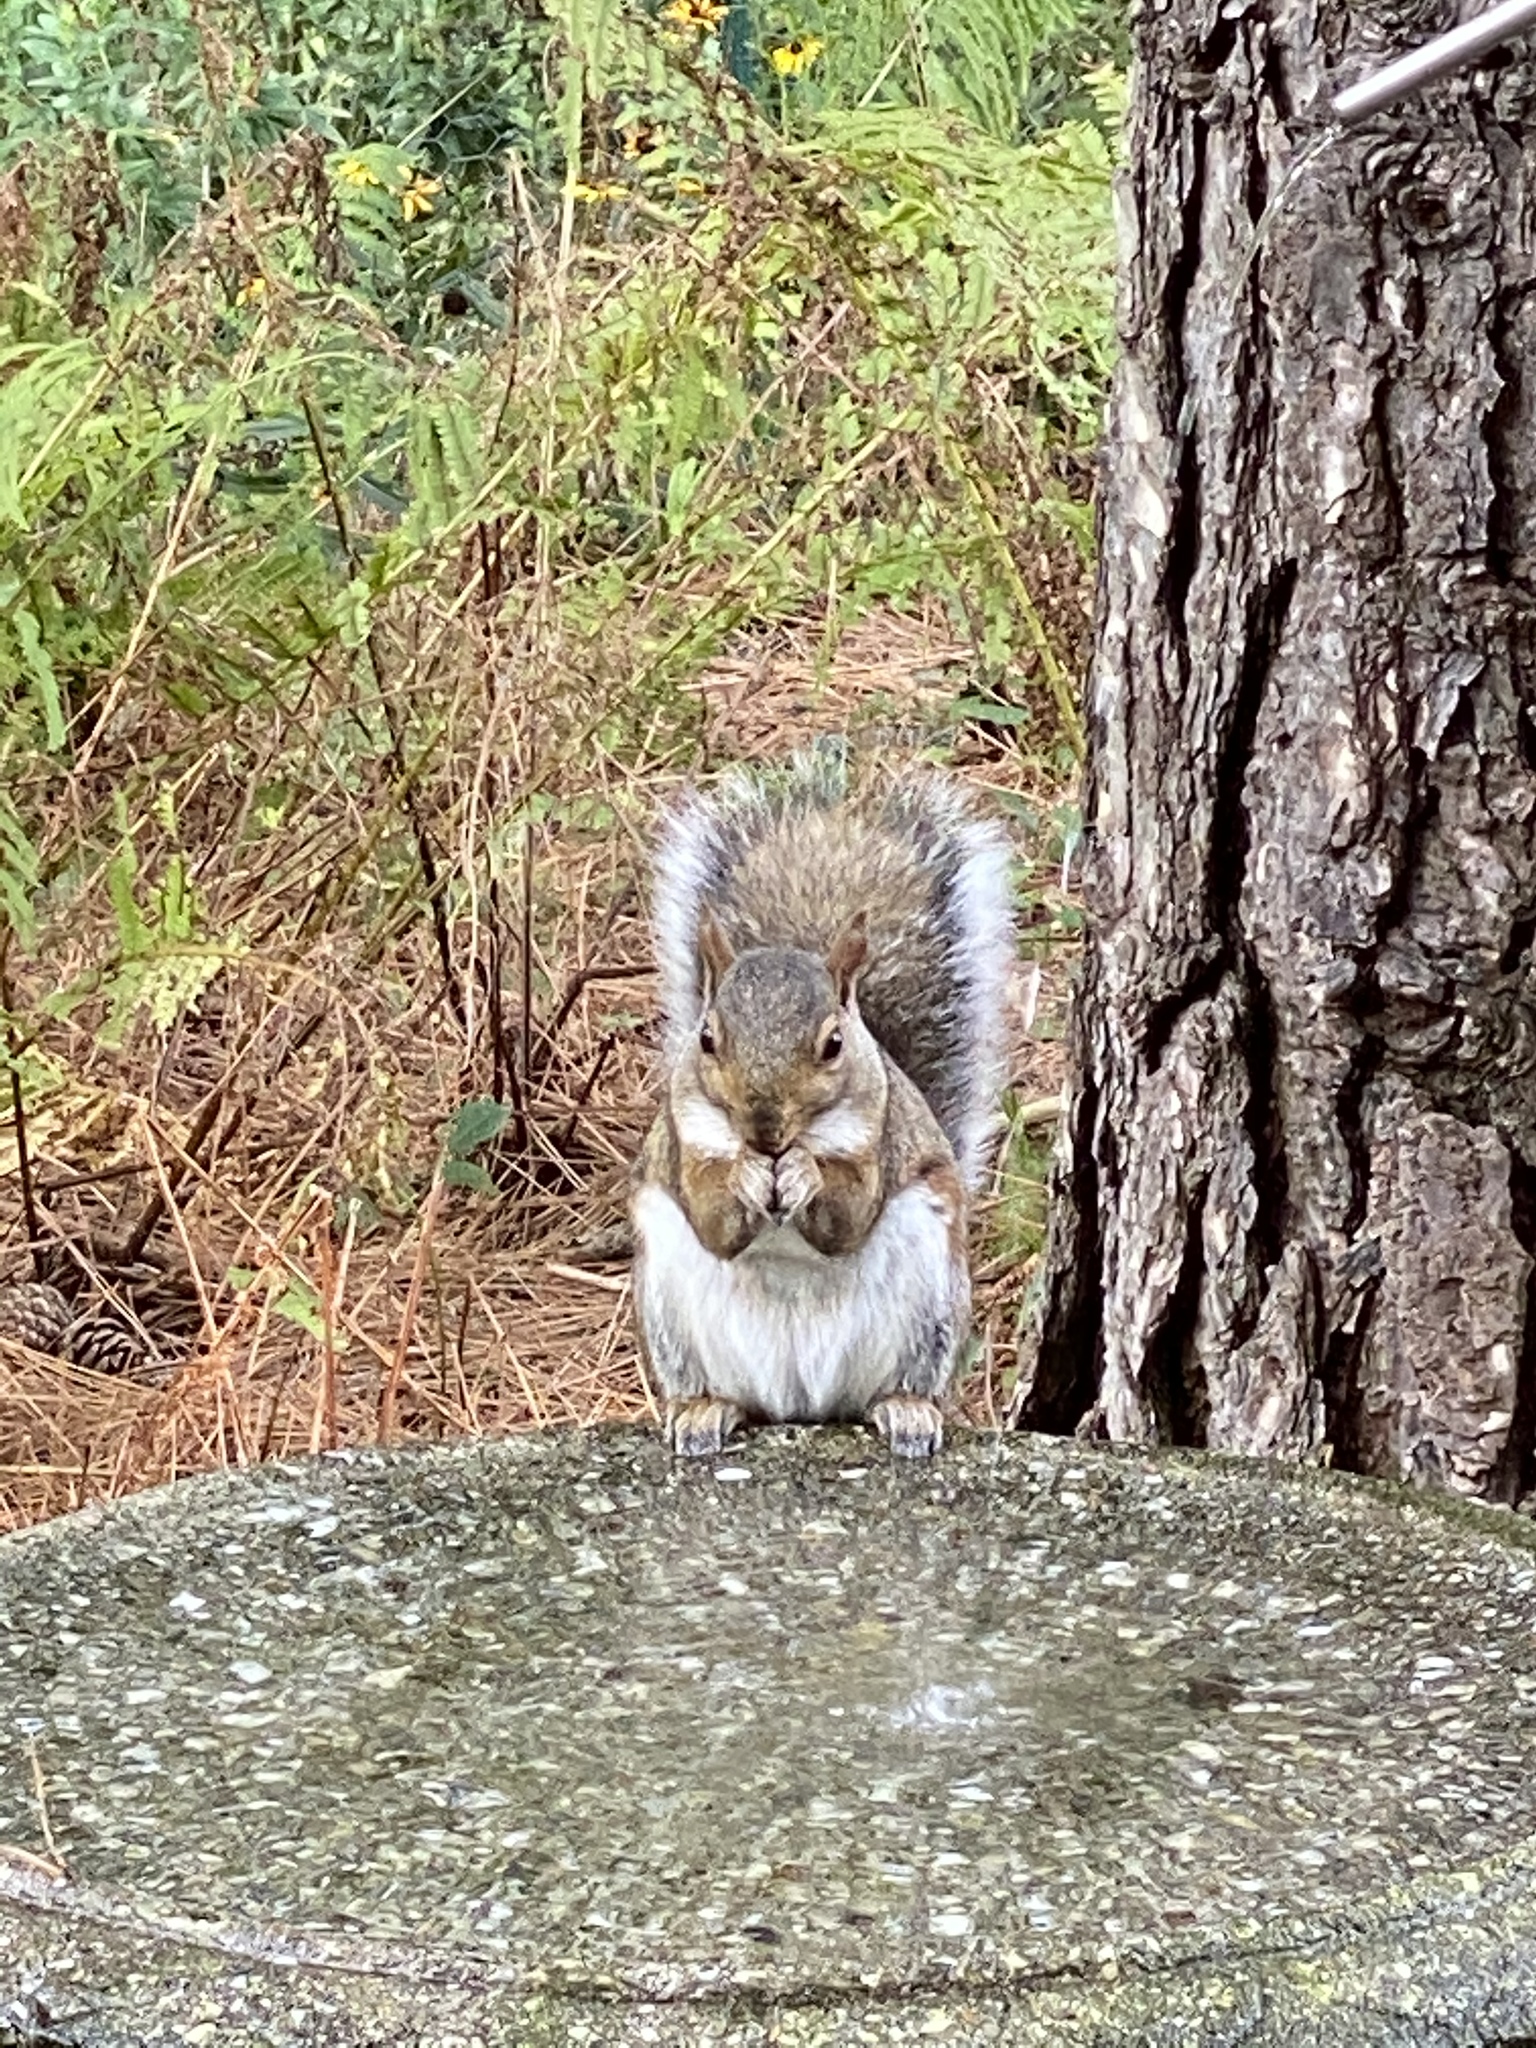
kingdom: Animalia
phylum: Chordata
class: Mammalia
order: Rodentia
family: Sciuridae
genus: Sciurus
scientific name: Sciurus carolinensis
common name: Eastern gray squirrel
